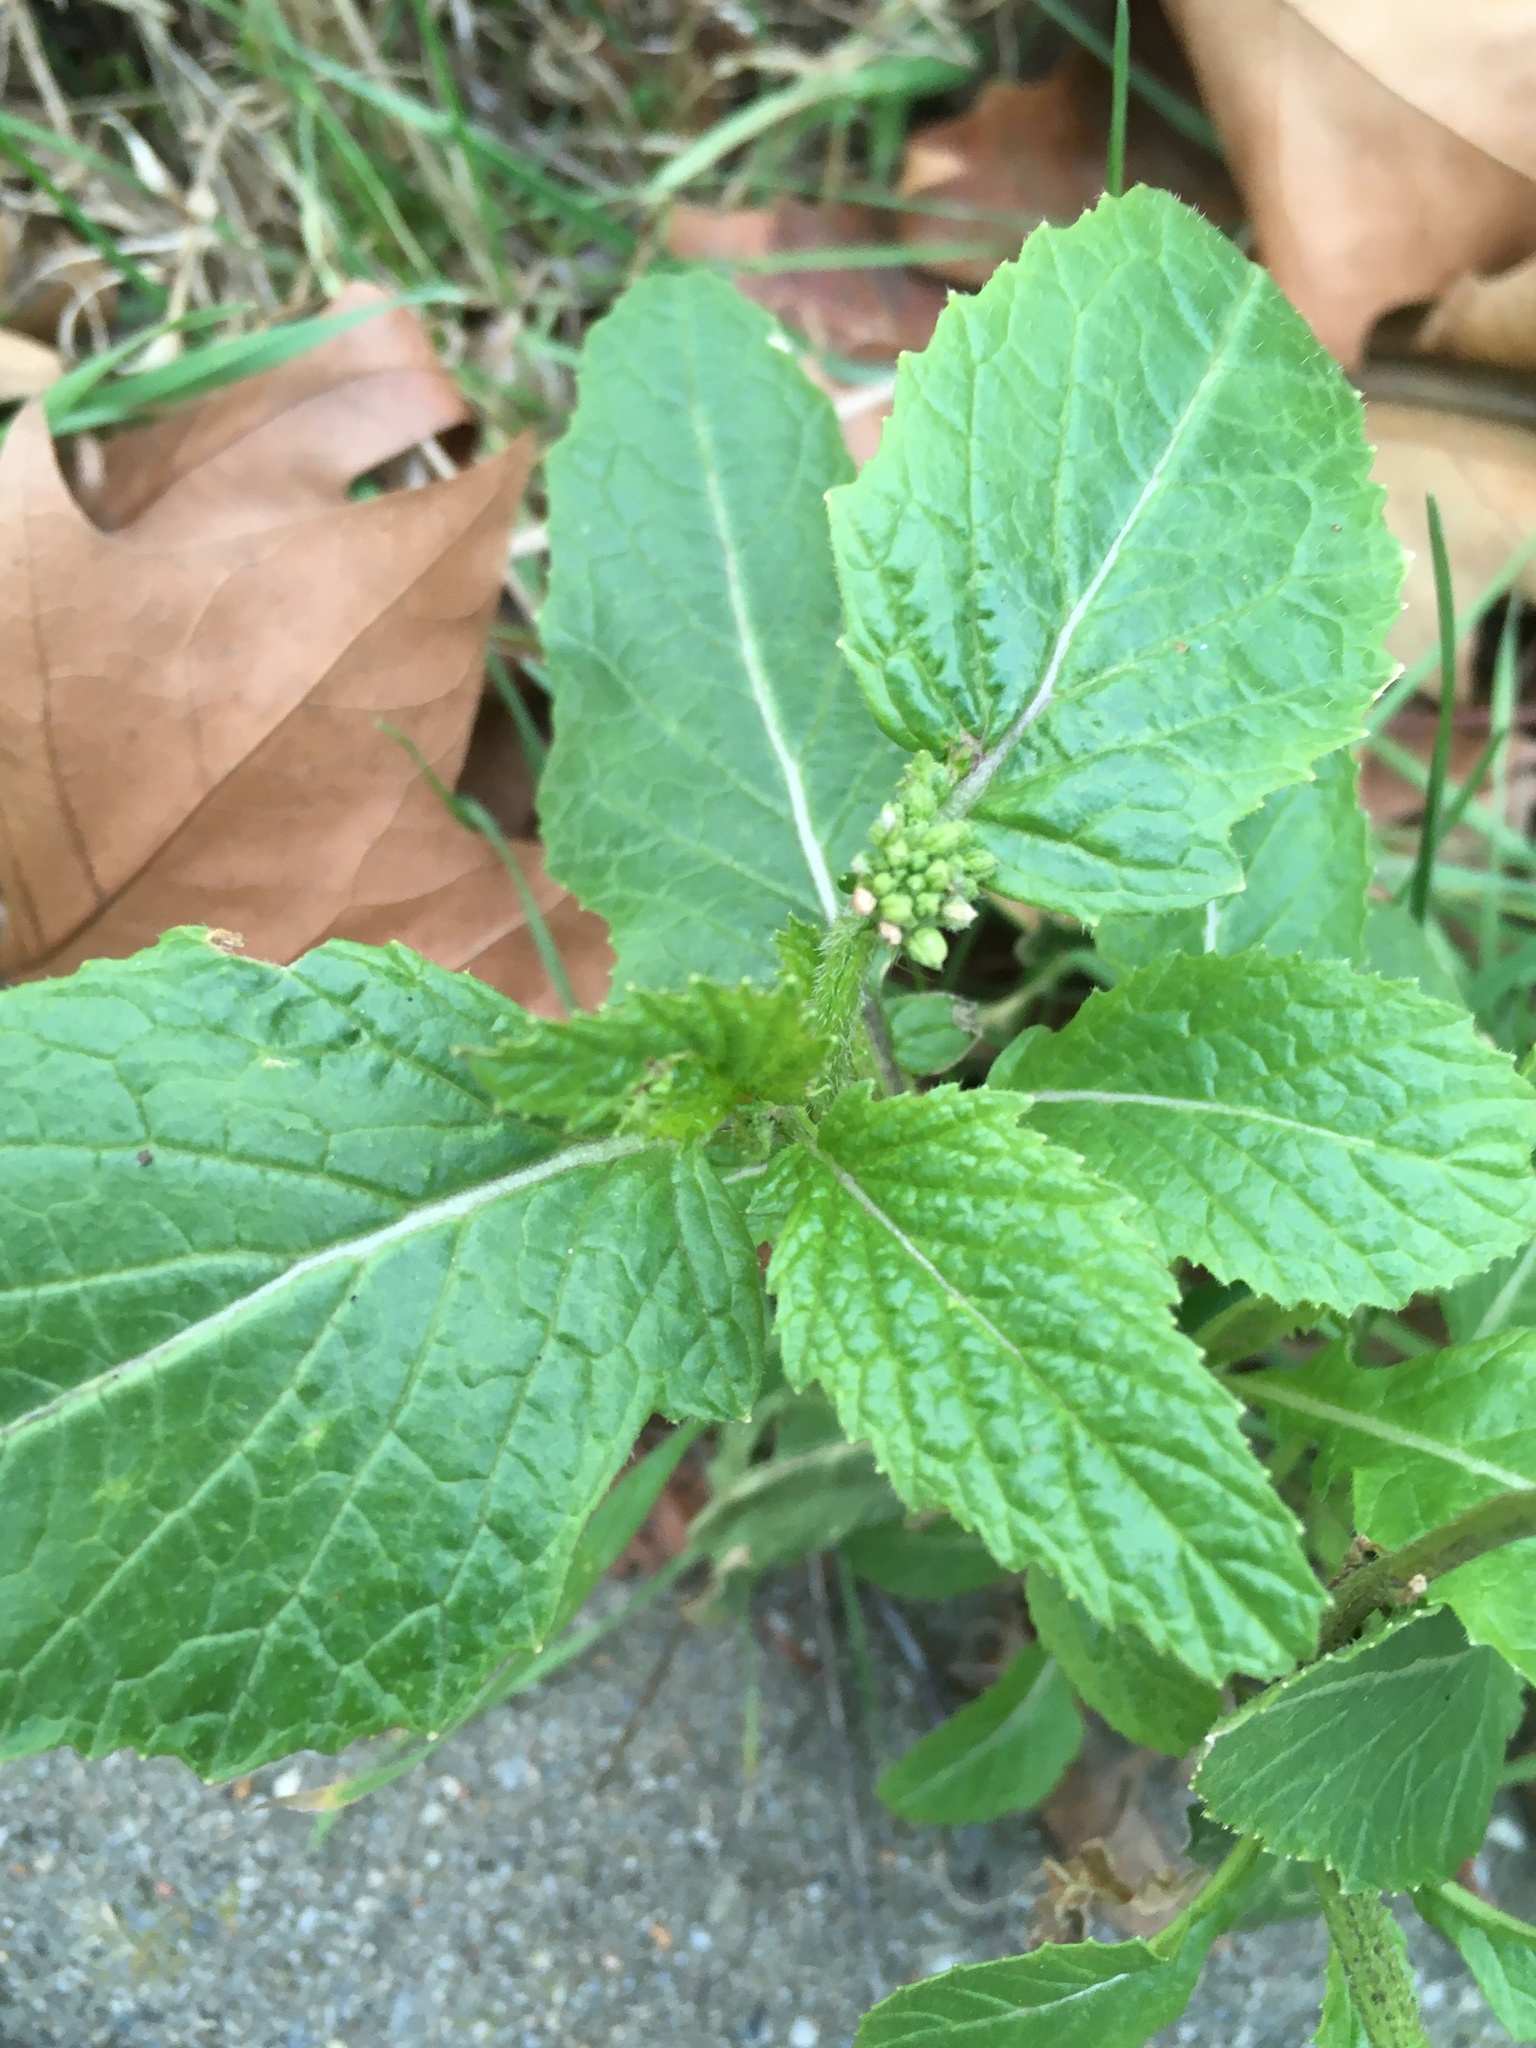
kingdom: Plantae
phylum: Tracheophyta
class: Magnoliopsida
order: Brassicales
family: Brassicaceae
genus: Sinapis
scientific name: Sinapis arvensis
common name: Charlock
